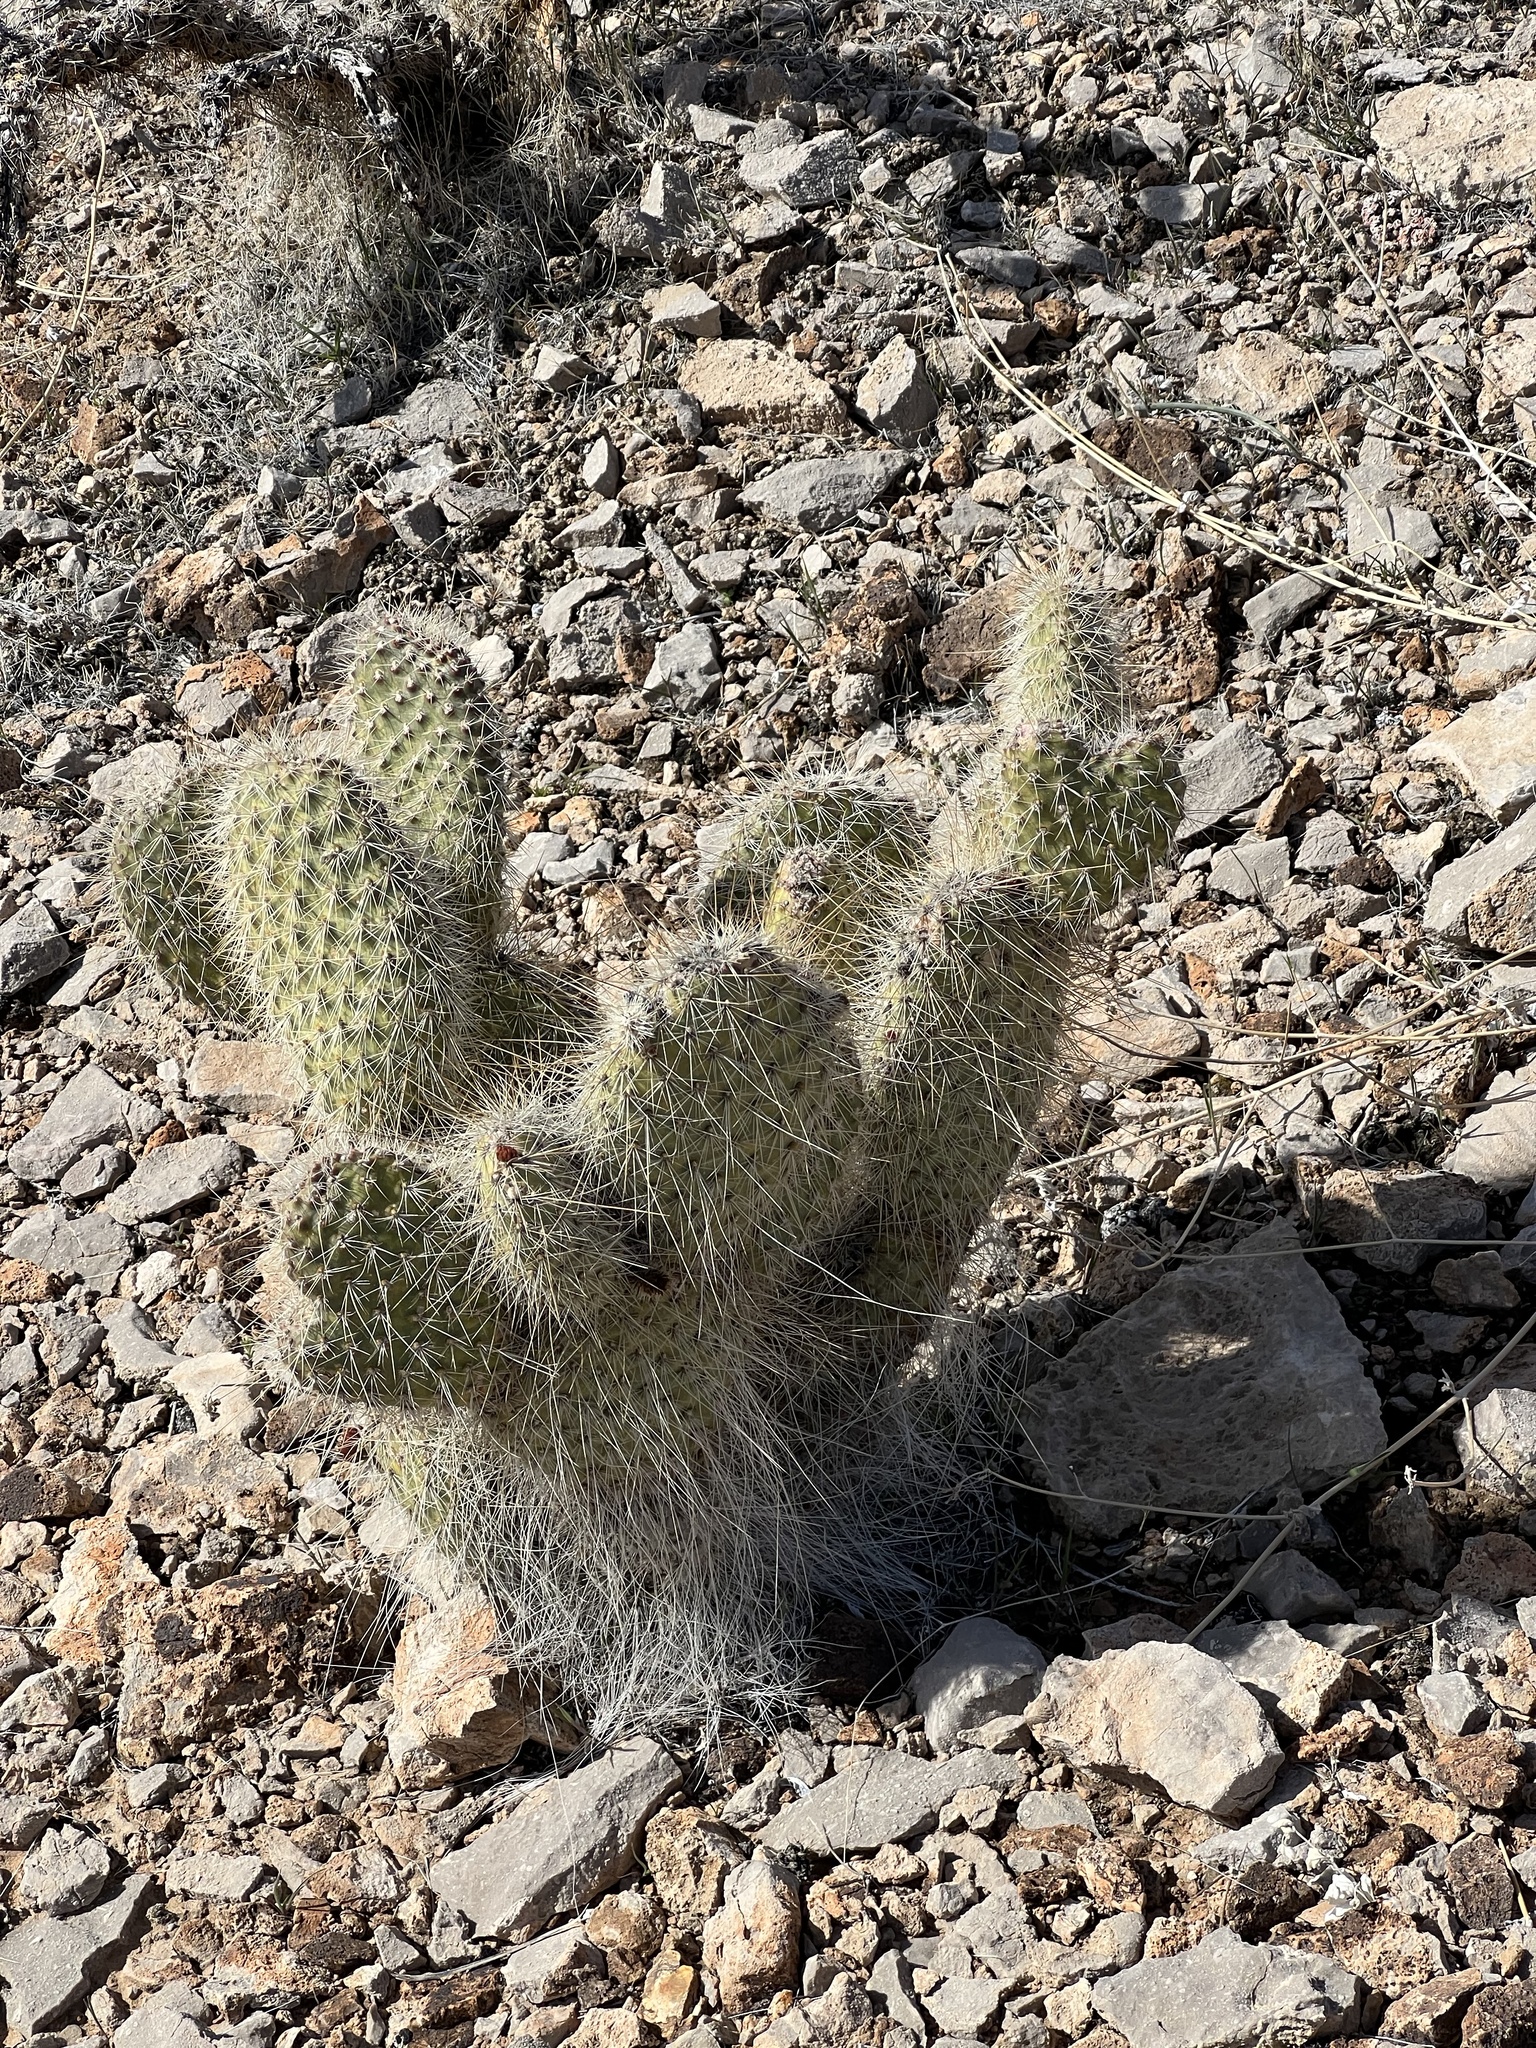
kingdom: Plantae
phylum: Tracheophyta
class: Magnoliopsida
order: Caryophyllales
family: Cactaceae
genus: Opuntia
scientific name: Opuntia polyacantha
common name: Plains prickly-pear
